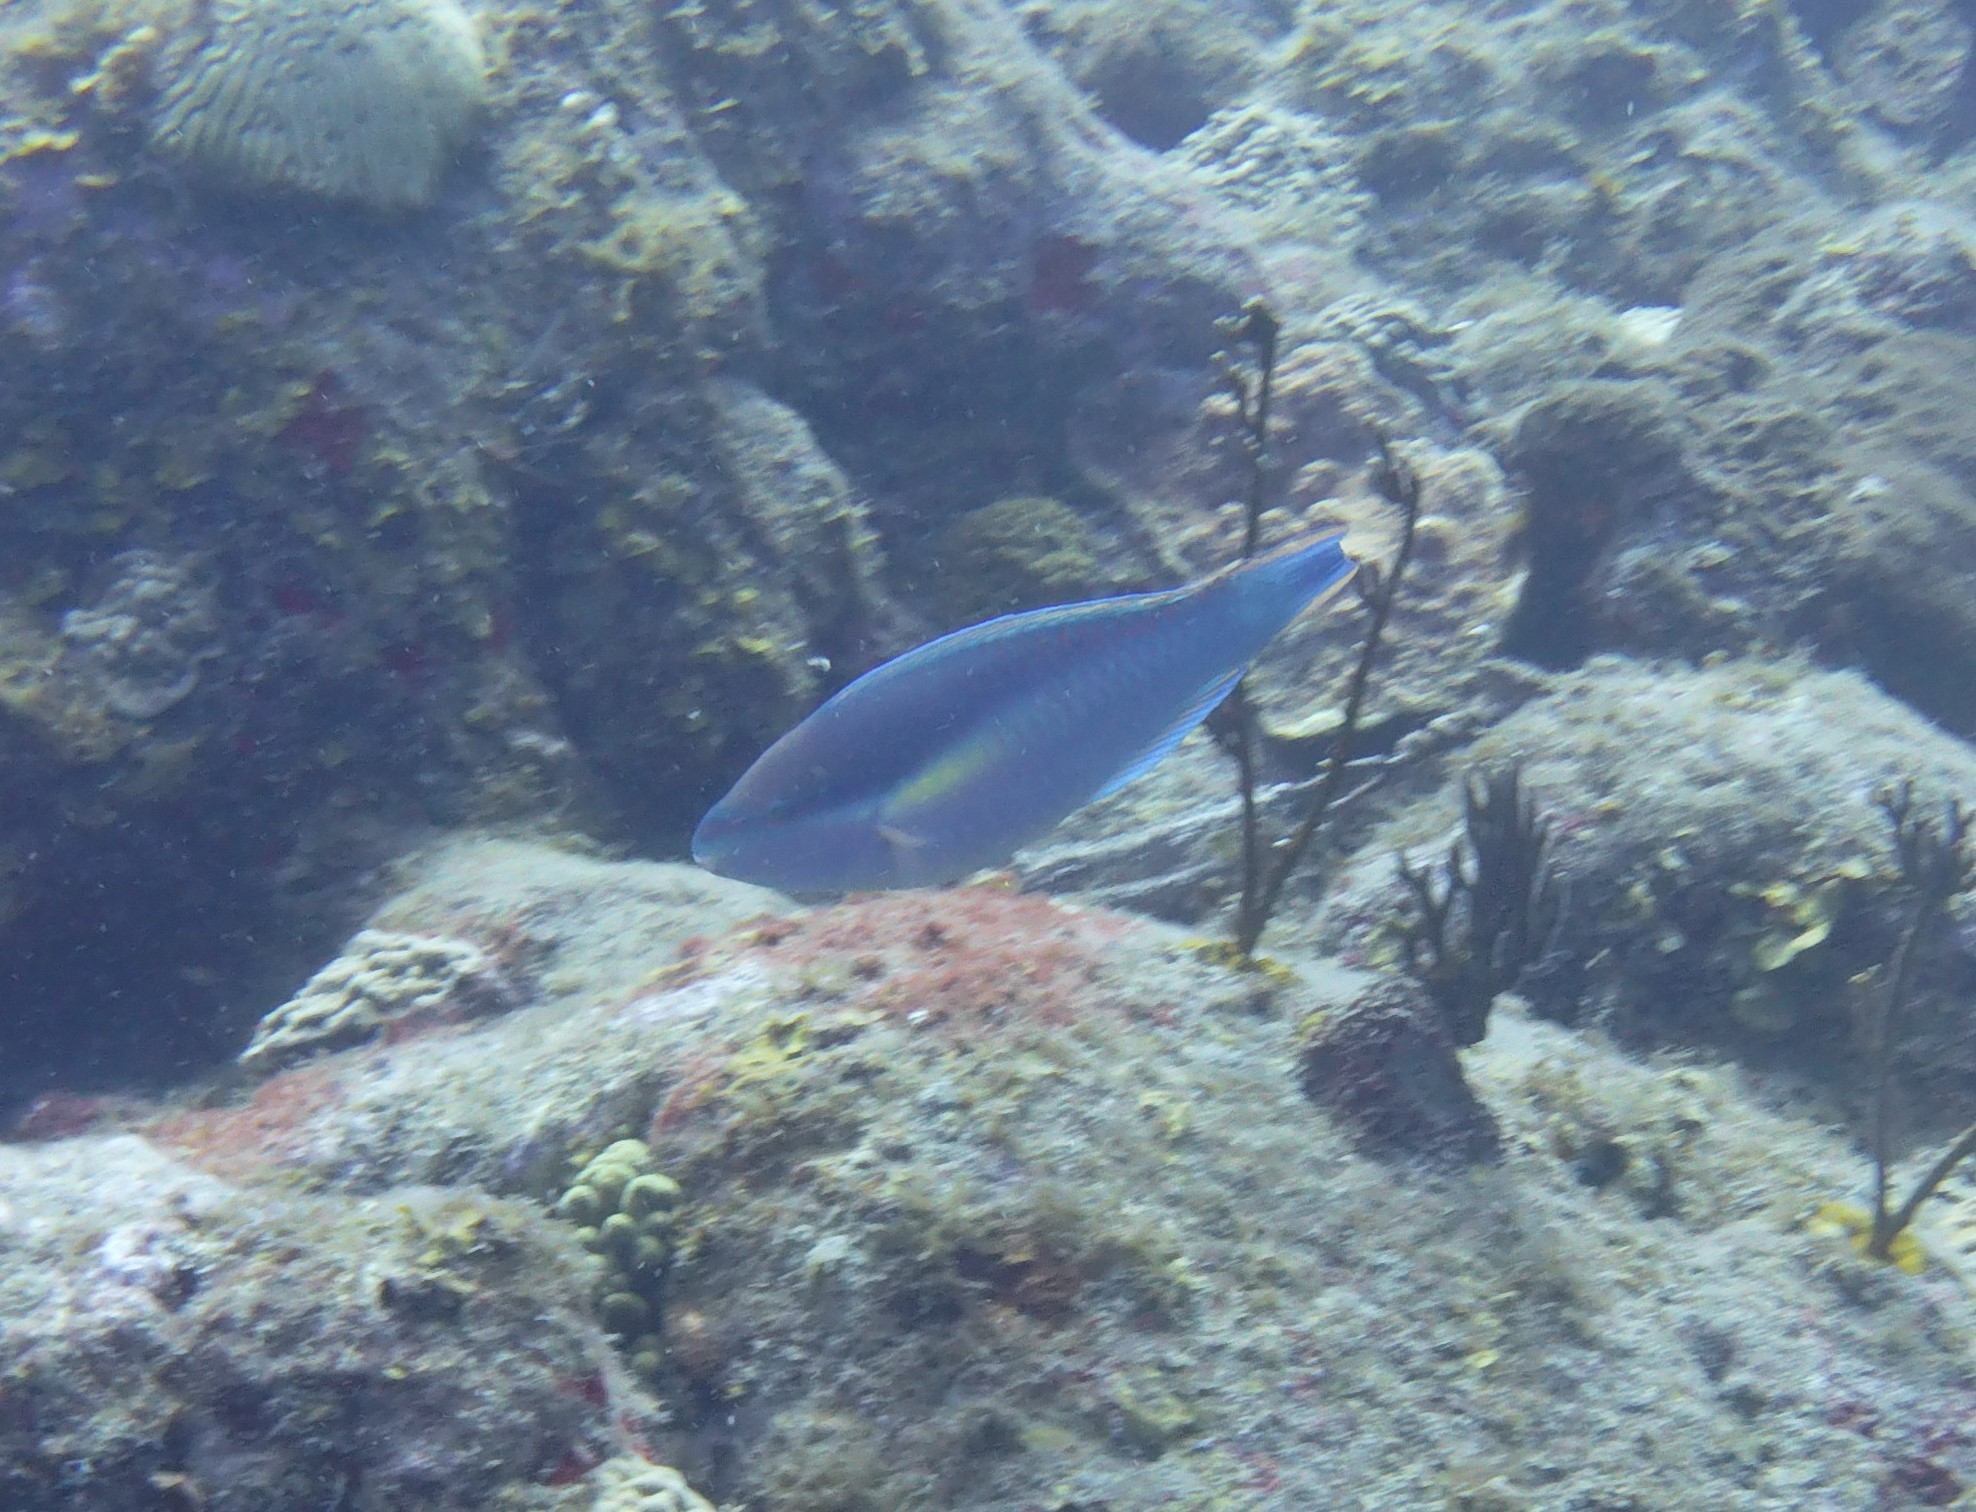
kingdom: Animalia
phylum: Chordata
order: Perciformes
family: Scaridae
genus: Scarus
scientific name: Scarus taeniopterus
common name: Princess parrotfish
